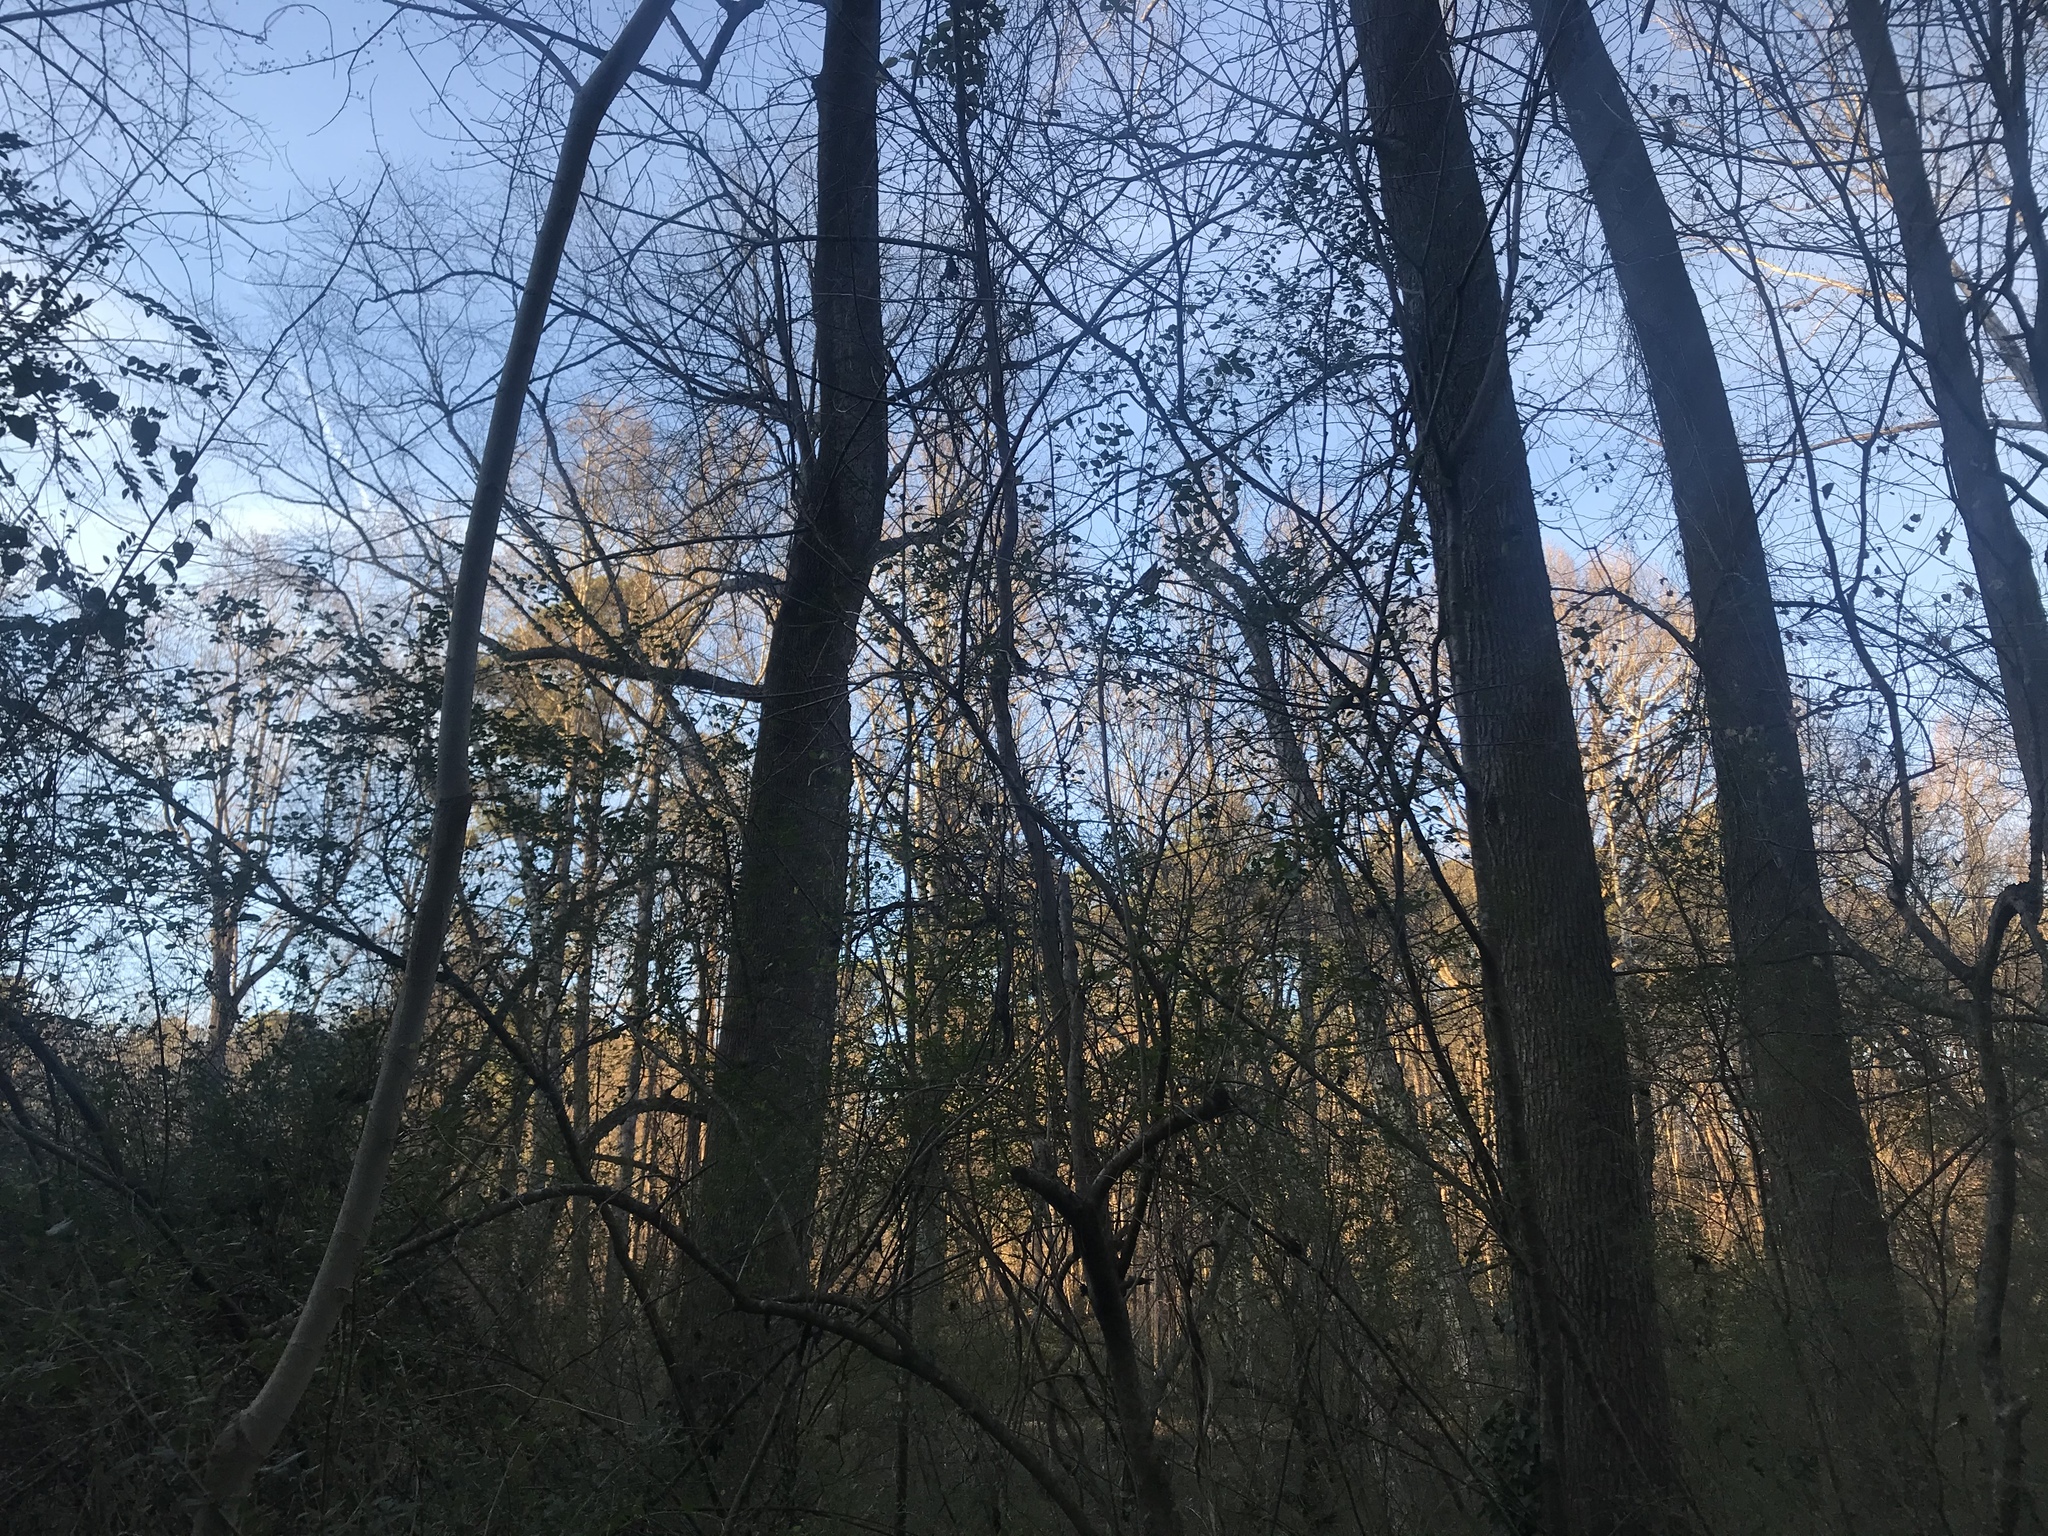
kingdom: Animalia
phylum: Chordata
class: Aves
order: Passeriformes
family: Paridae
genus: Poecile
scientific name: Poecile carolinensis
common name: Carolina chickadee
